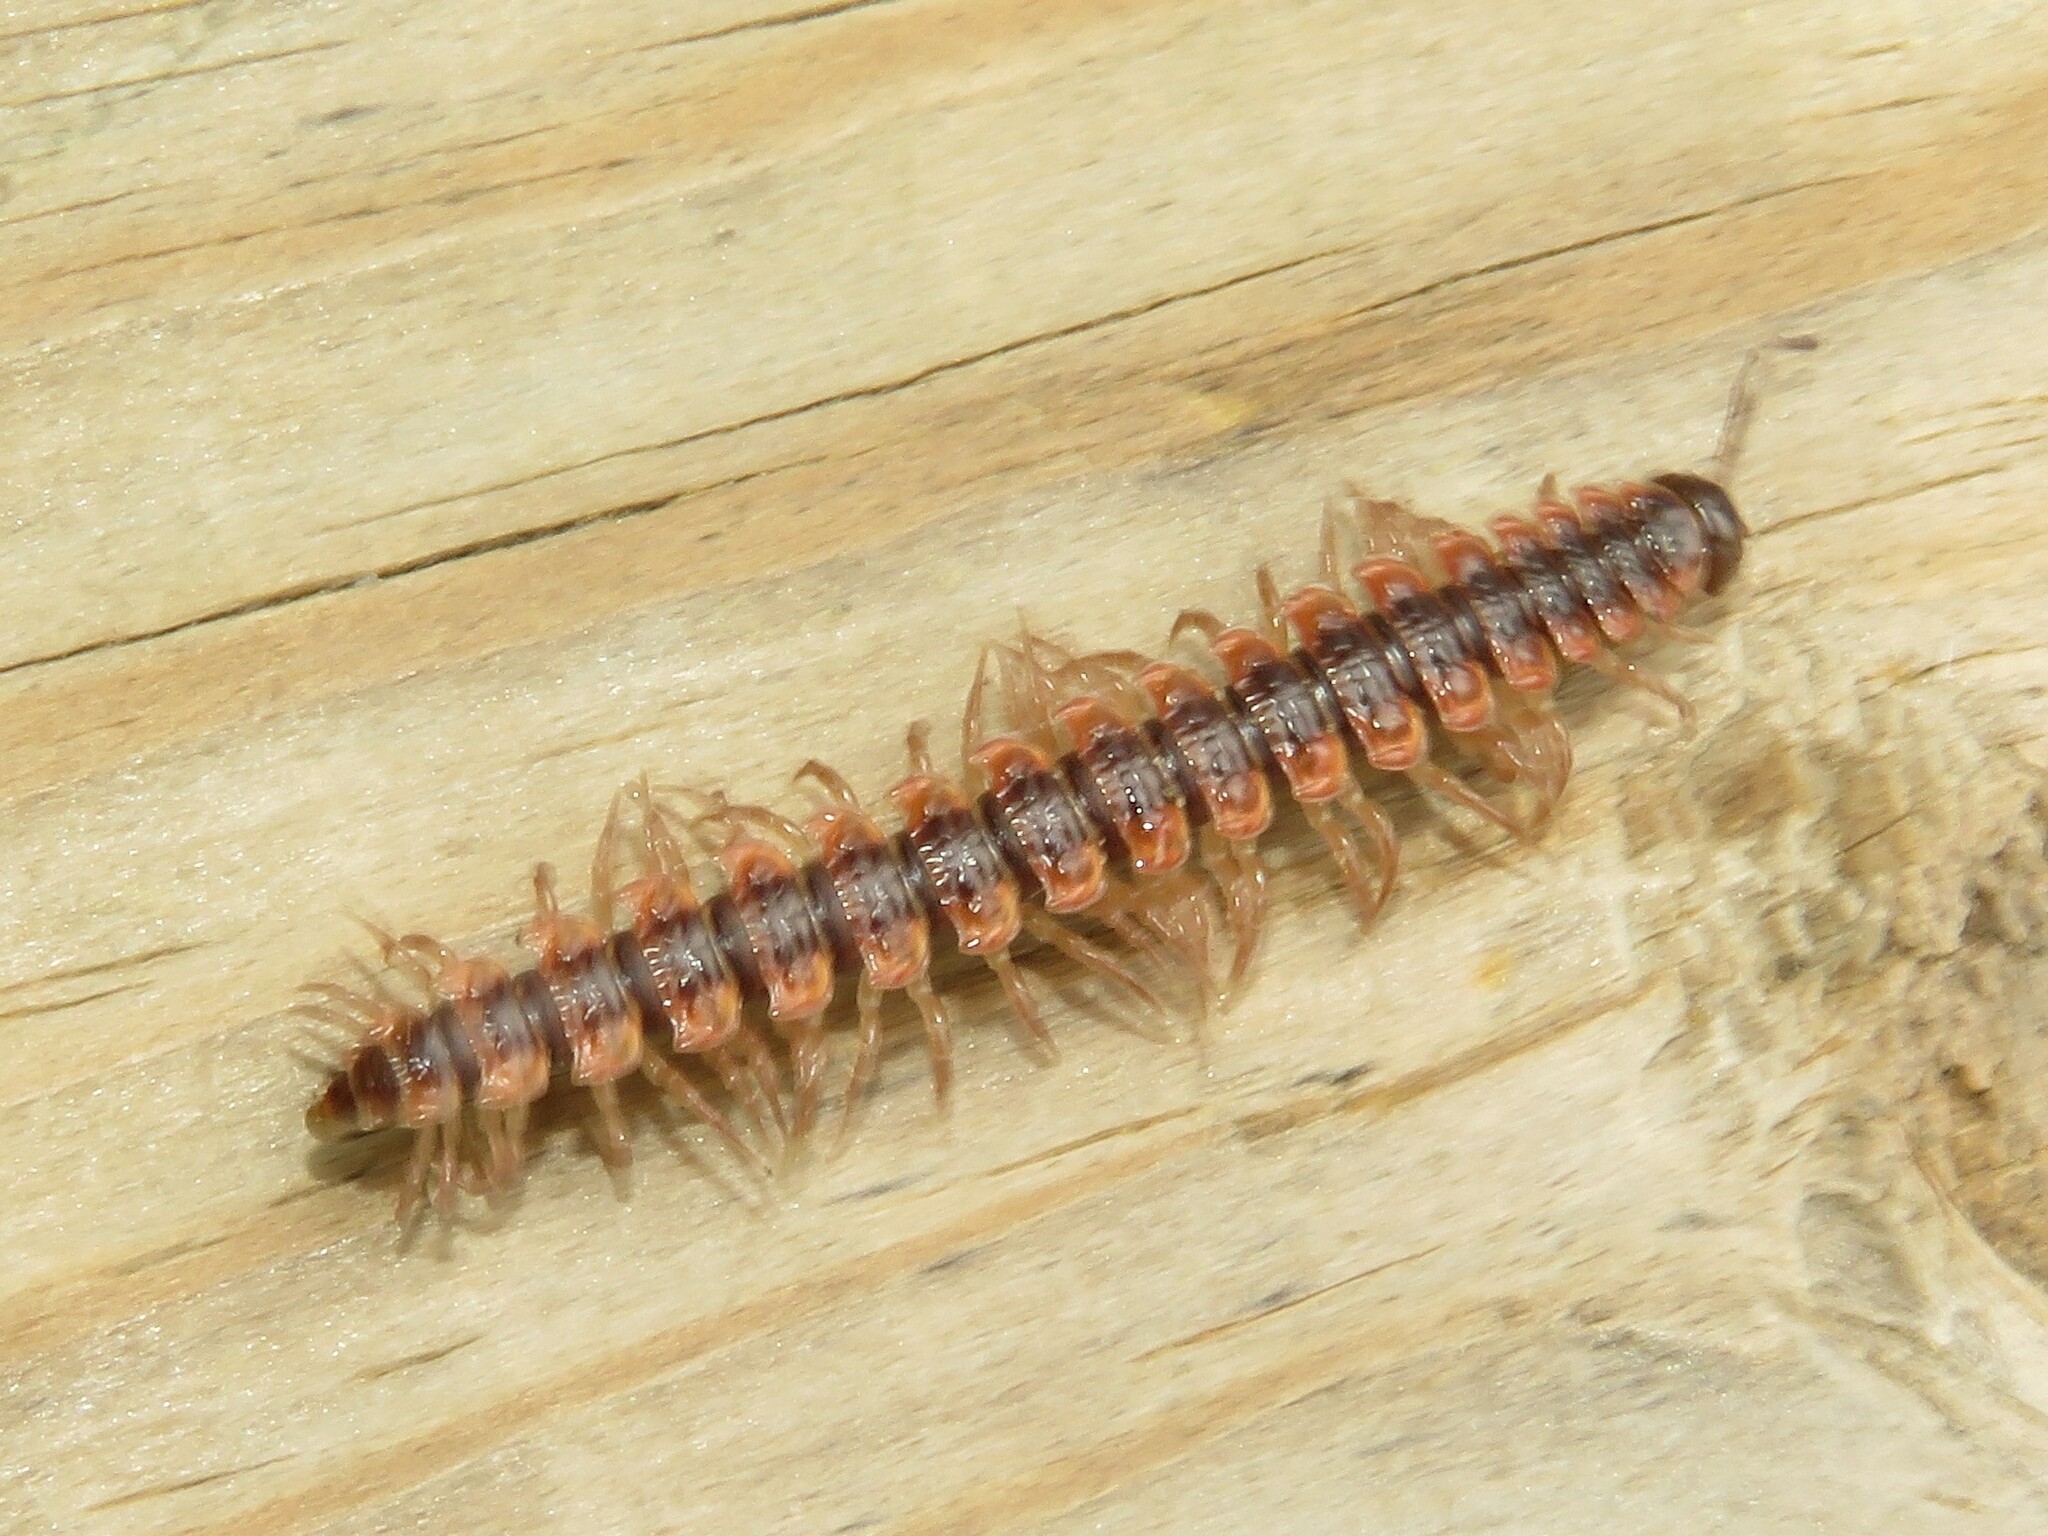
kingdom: Animalia
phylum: Arthropoda
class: Diplopoda
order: Polydesmida
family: Polydesmidae
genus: Pseudopolydesmus
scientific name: Pseudopolydesmus canadensis
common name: Canadian flat-back millipede
